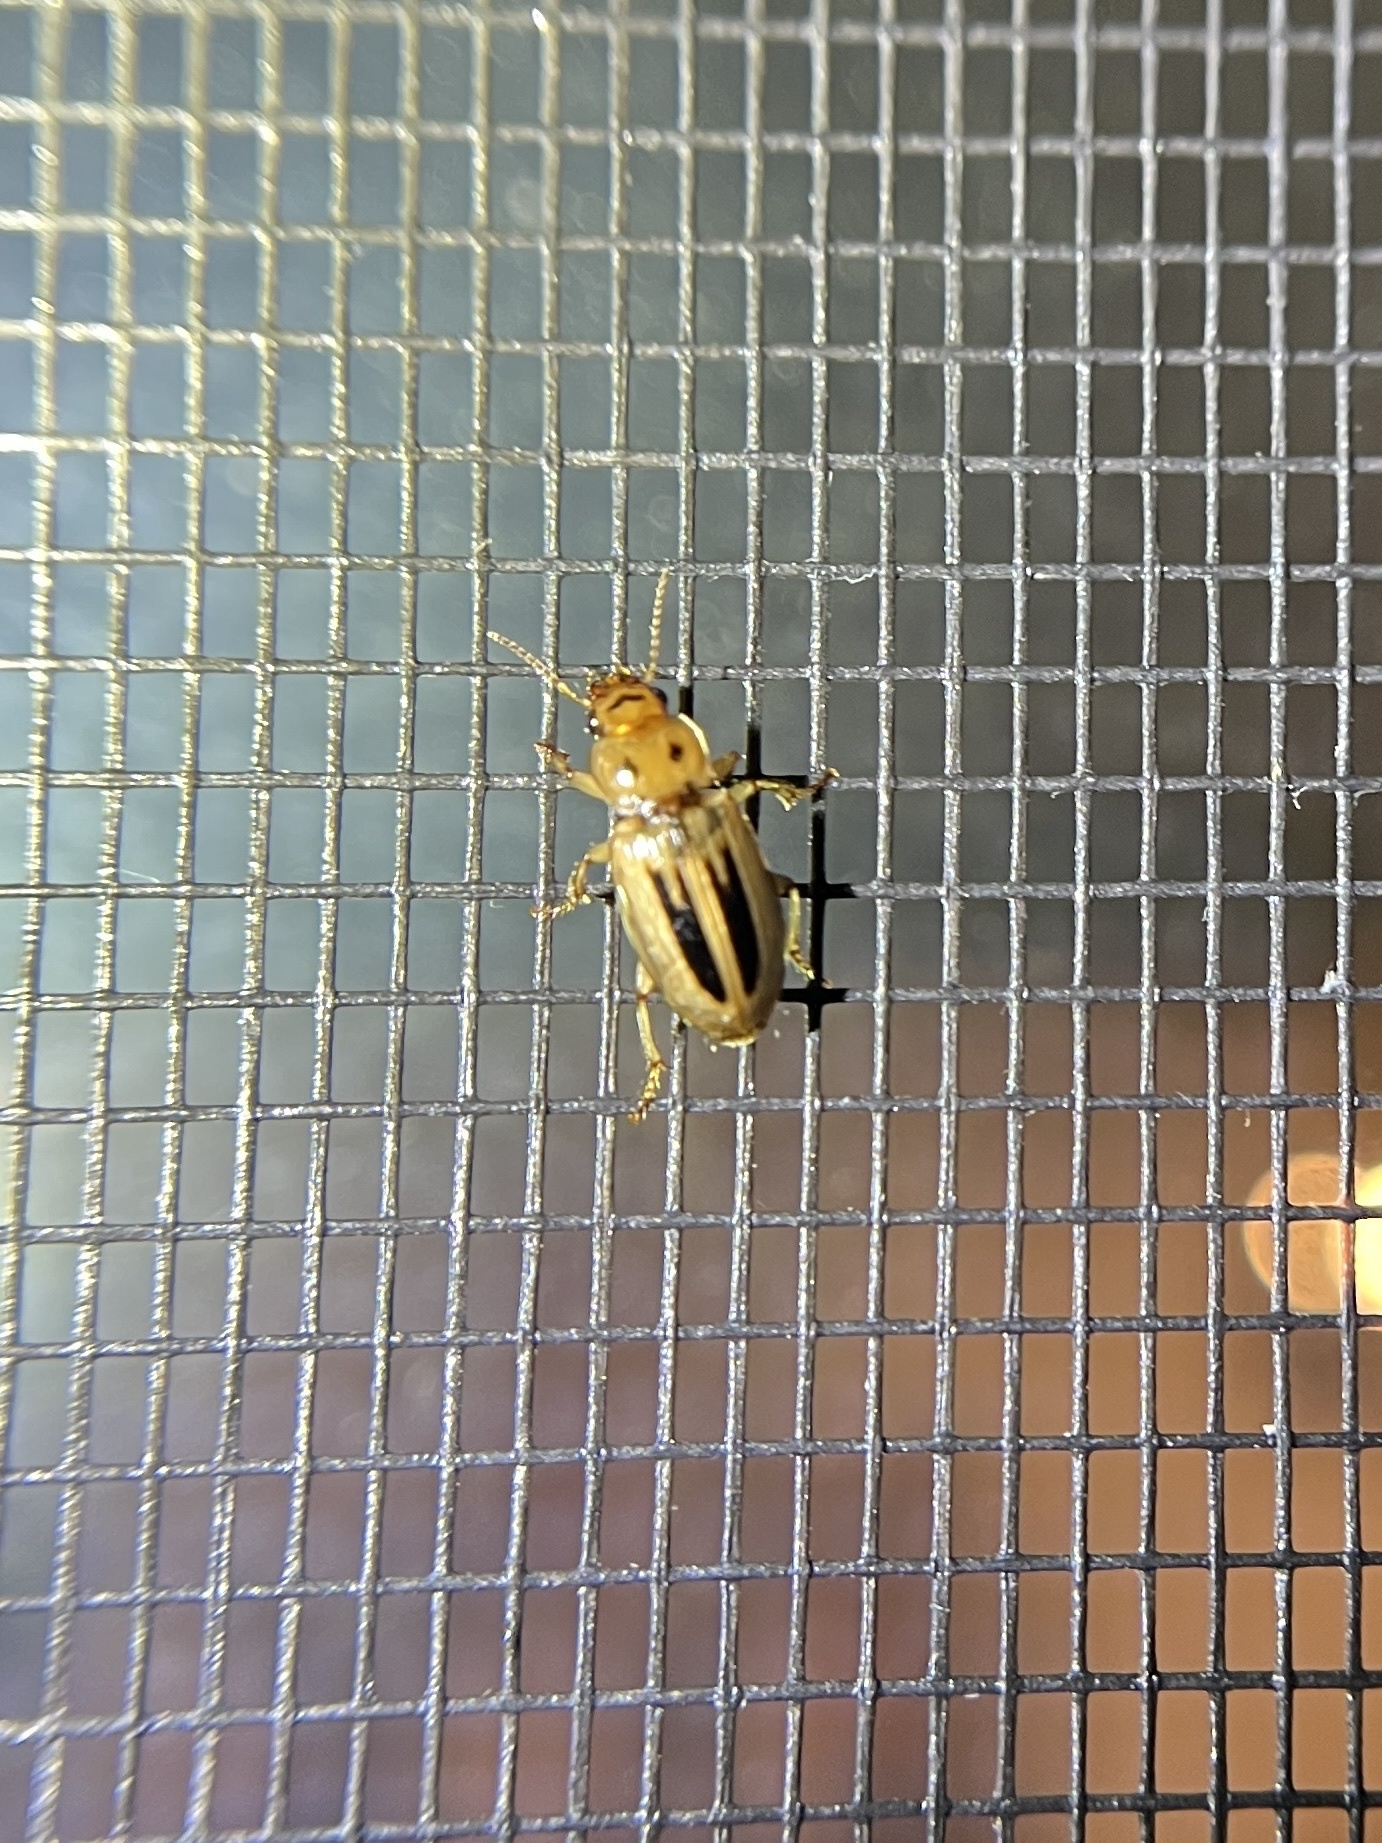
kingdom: Animalia
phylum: Arthropoda
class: Insecta
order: Coleoptera
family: Carabidae
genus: Stenolophus
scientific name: Stenolophus lineola
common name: Lined stenolophus
